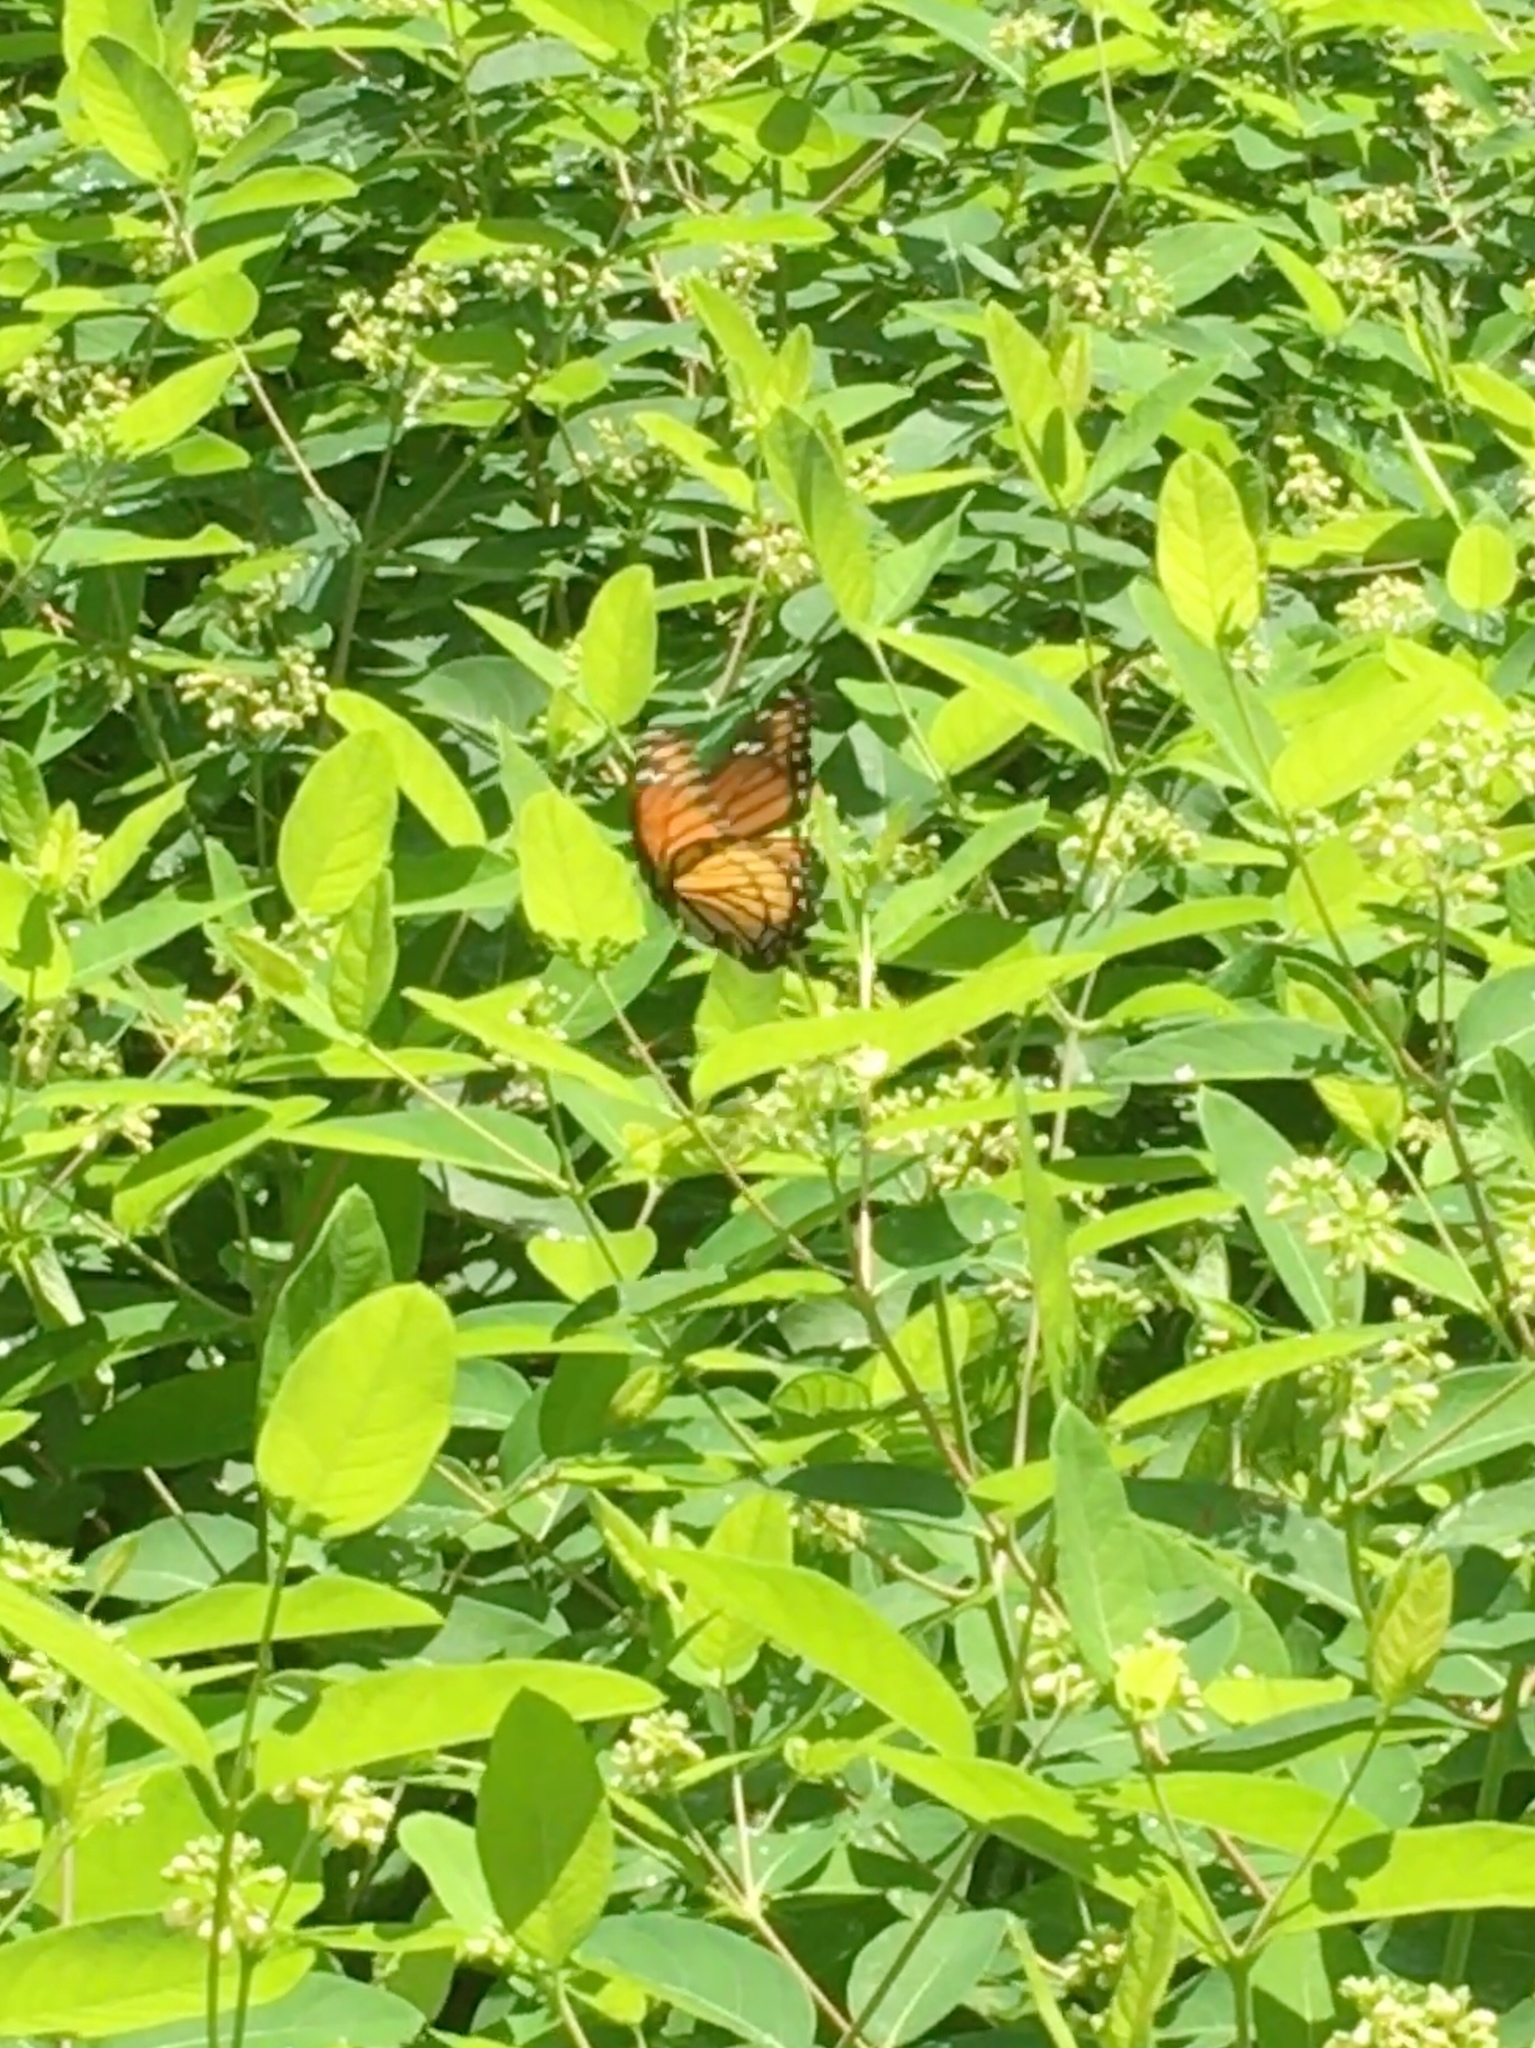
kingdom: Animalia
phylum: Arthropoda
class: Insecta
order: Lepidoptera
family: Nymphalidae
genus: Limenitis
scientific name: Limenitis archippus
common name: Viceroy
